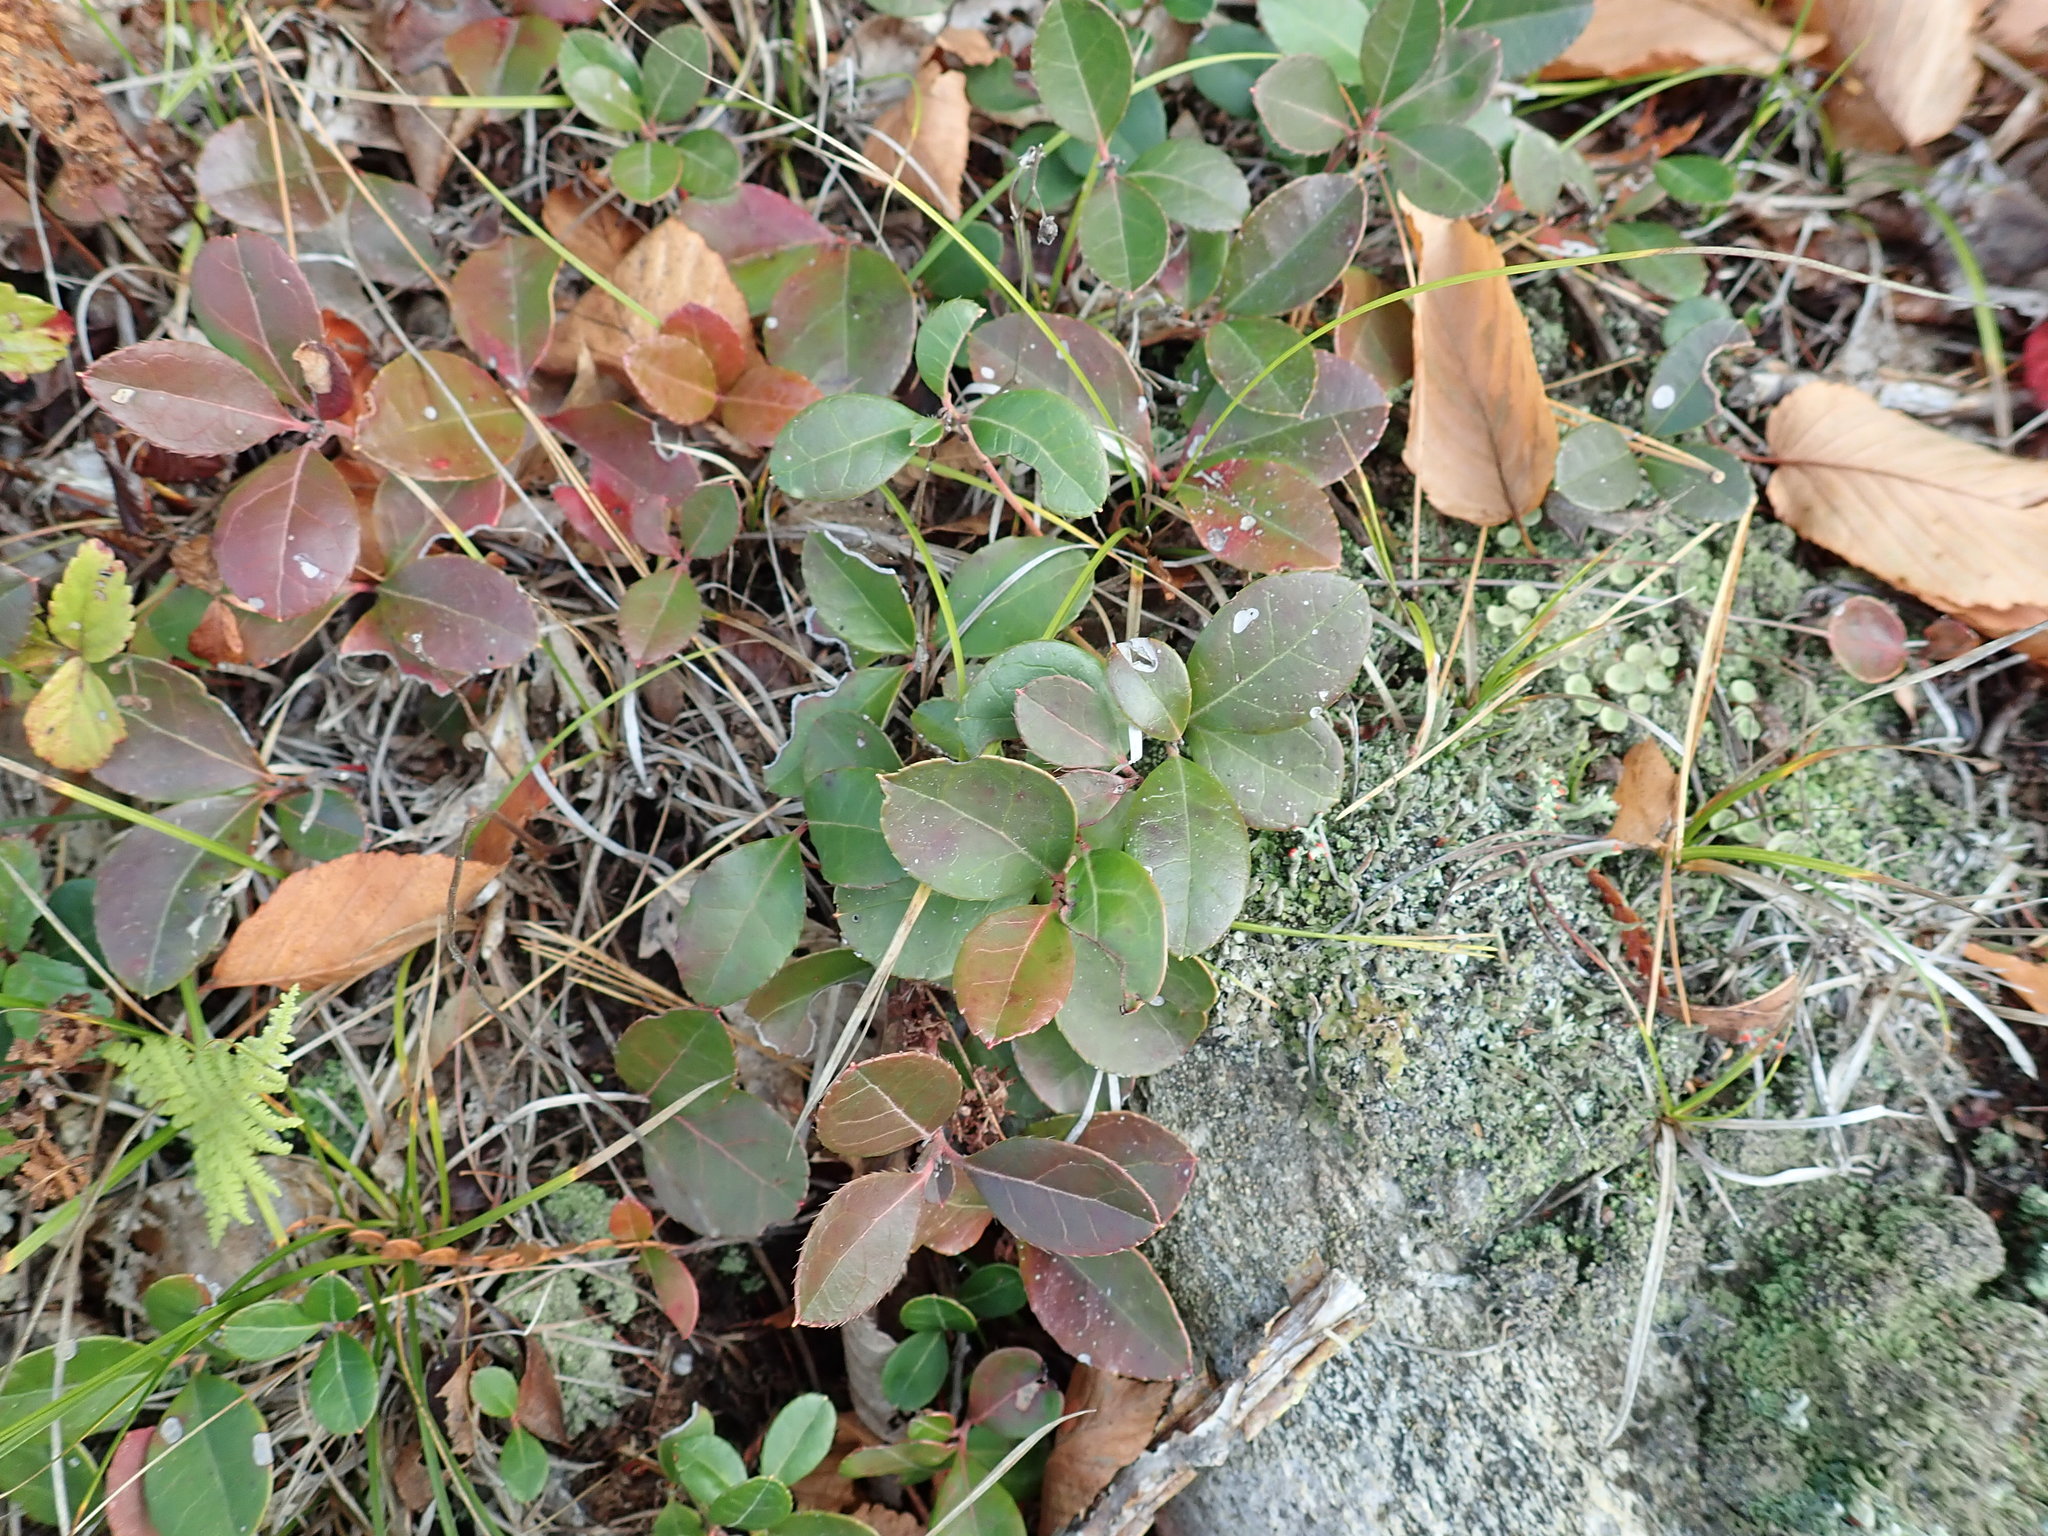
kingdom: Plantae
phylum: Tracheophyta
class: Magnoliopsida
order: Ericales
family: Ericaceae
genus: Gaultheria
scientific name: Gaultheria procumbens
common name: Checkerberry
